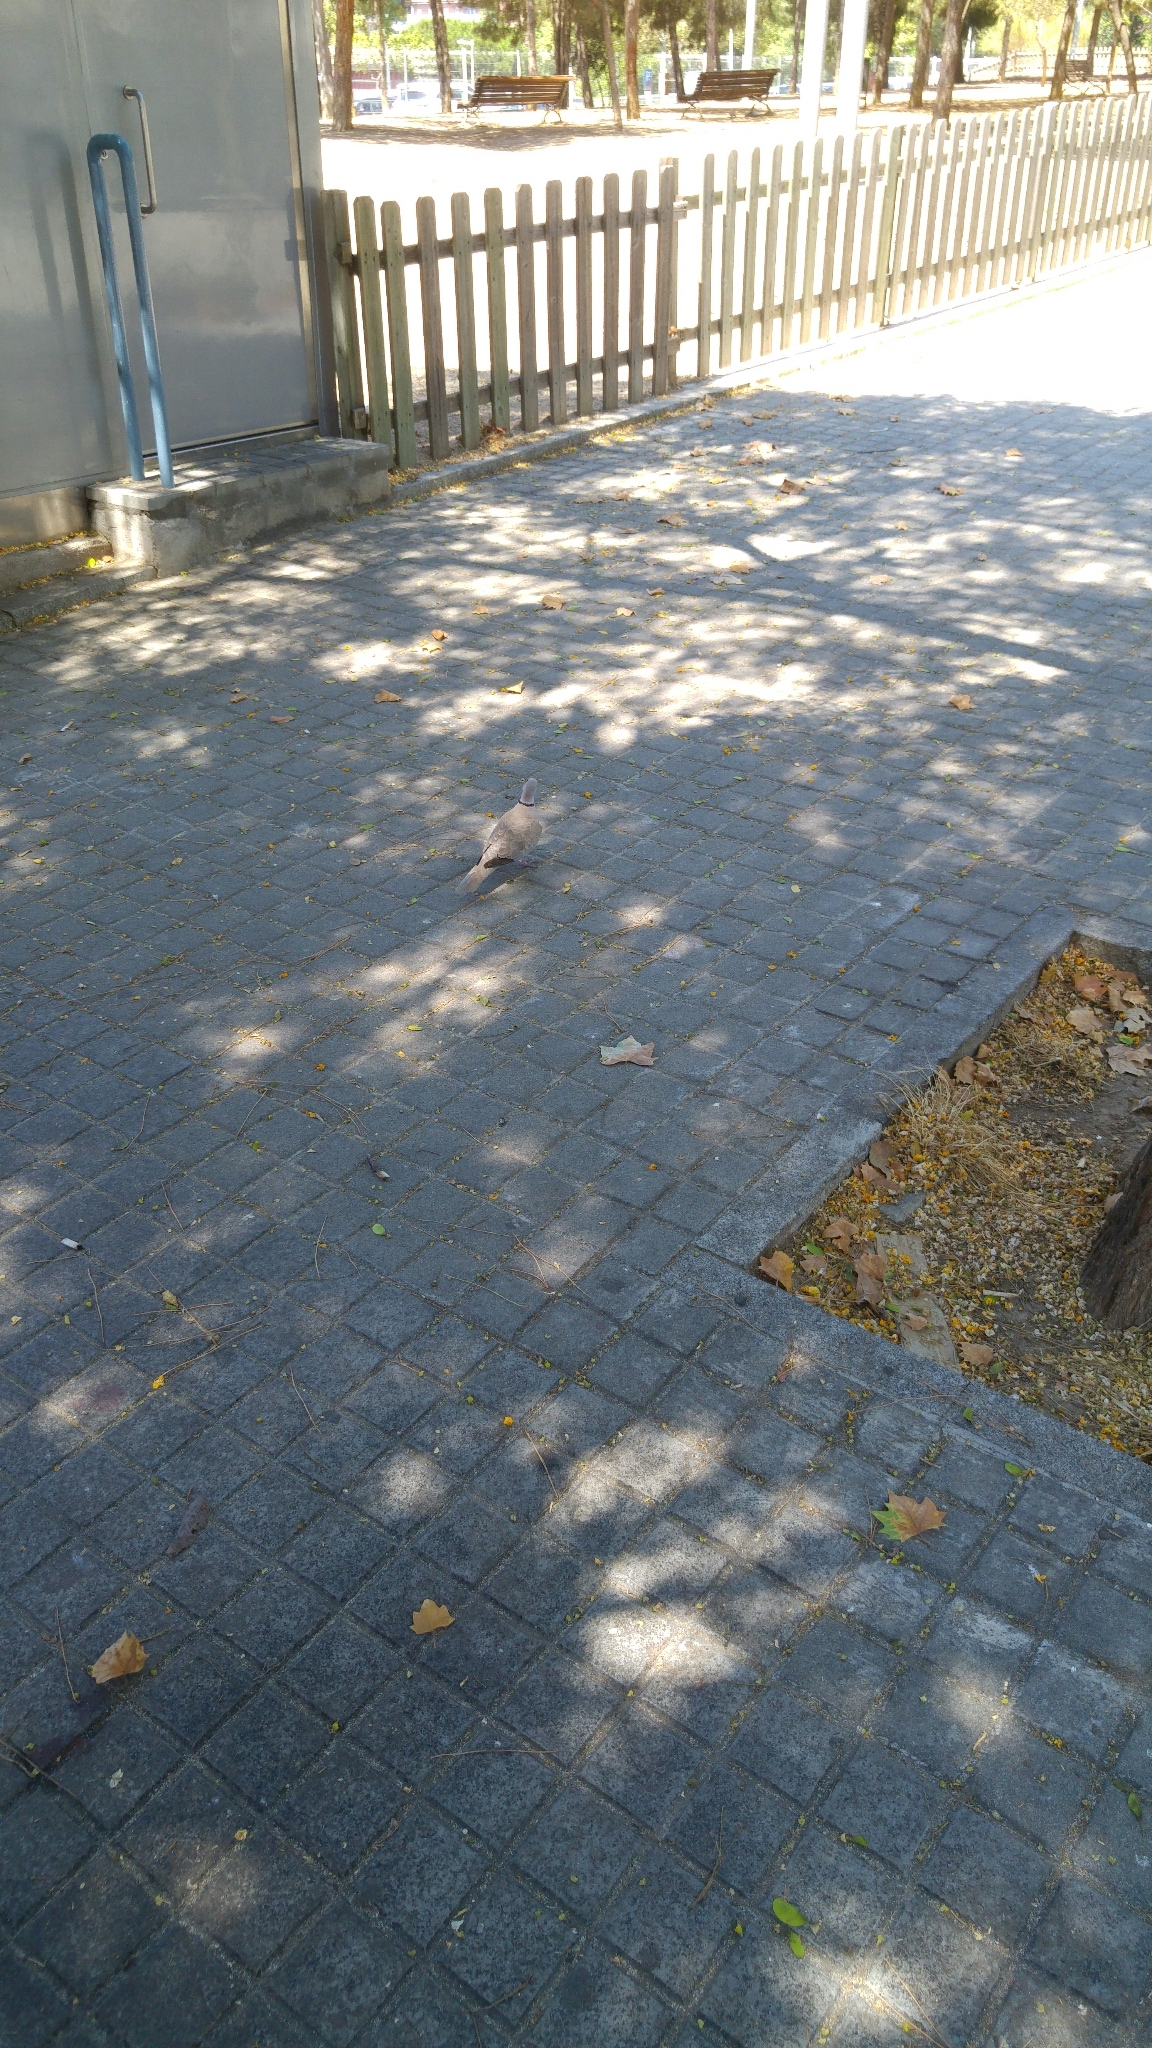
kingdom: Animalia
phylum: Chordata
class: Aves
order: Columbiformes
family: Columbidae
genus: Streptopelia
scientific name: Streptopelia decaocto
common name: Eurasian collared dove
